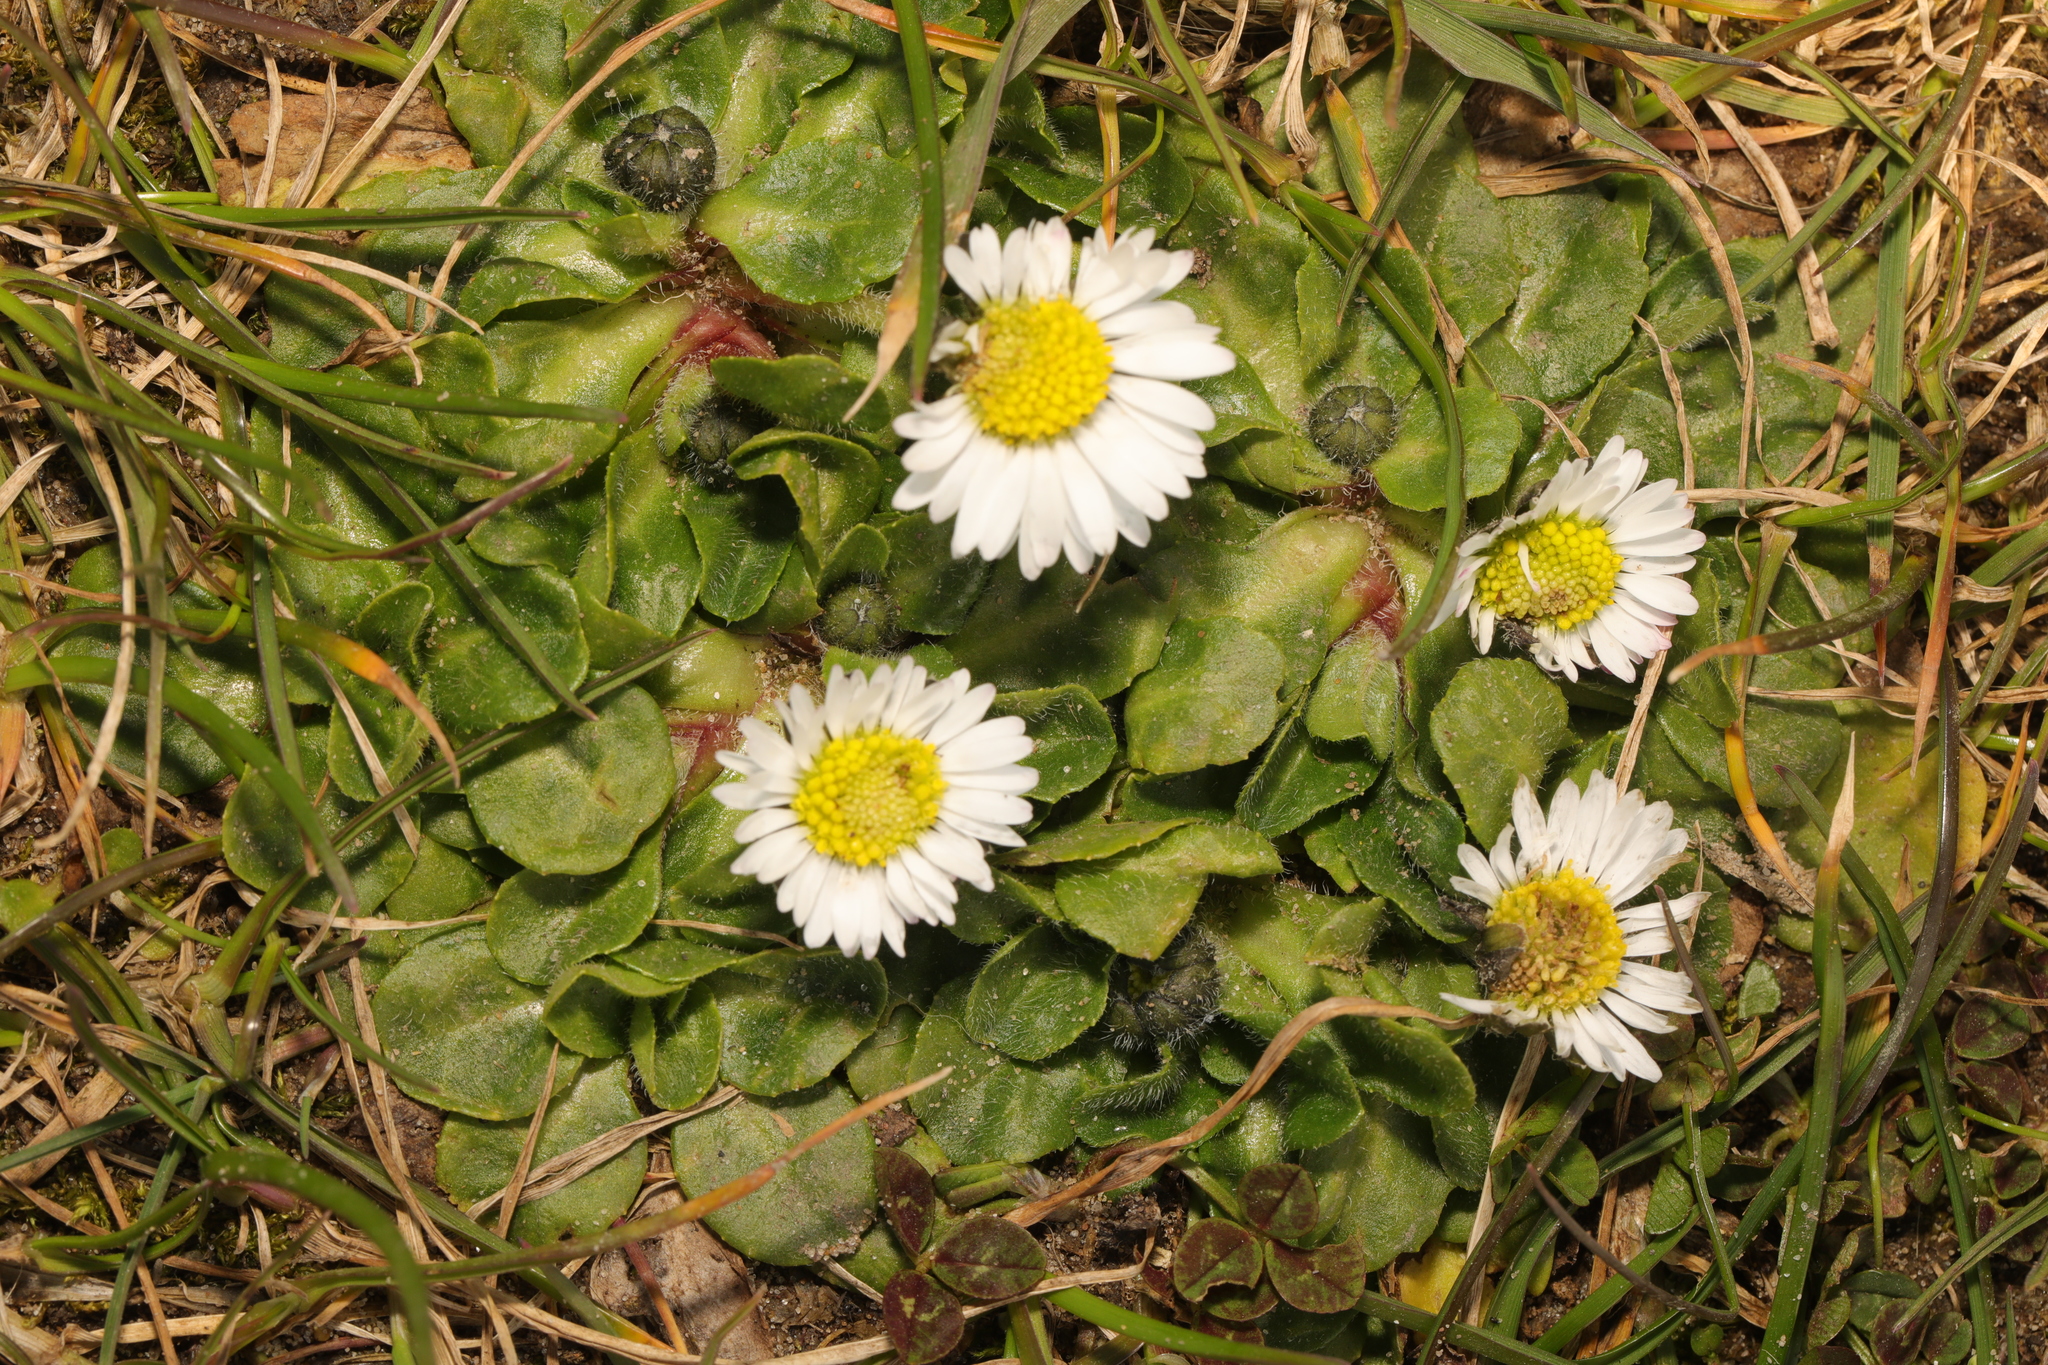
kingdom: Plantae
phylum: Tracheophyta
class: Magnoliopsida
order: Asterales
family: Asteraceae
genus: Bellis
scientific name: Bellis perennis
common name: Lawndaisy
